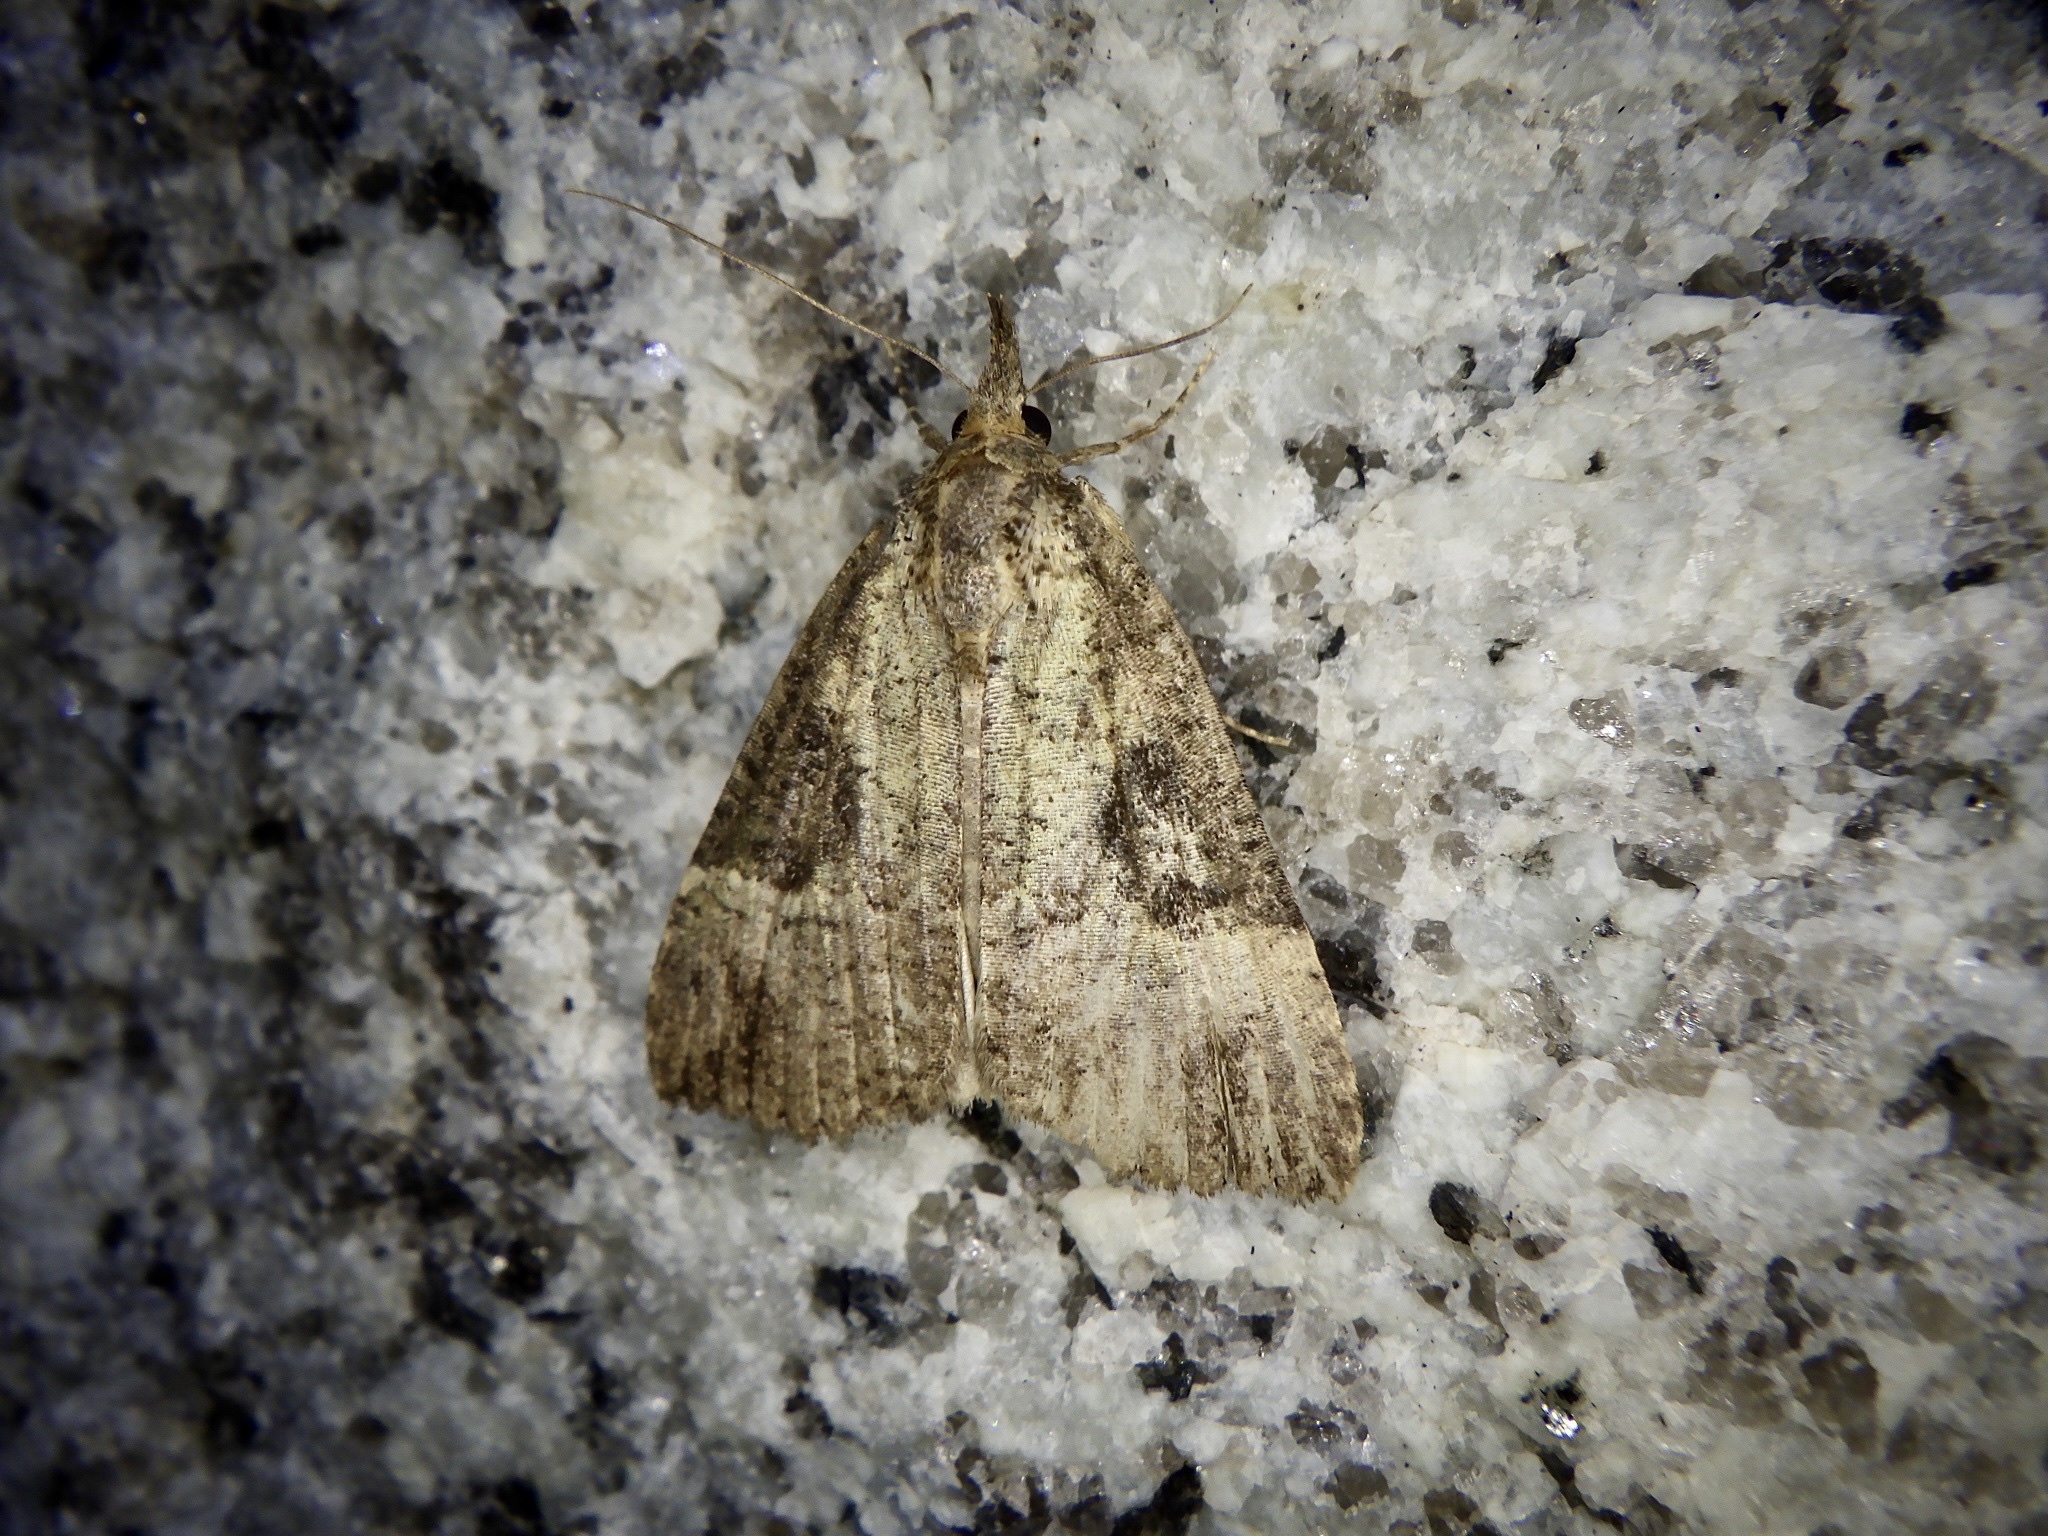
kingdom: Animalia
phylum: Arthropoda
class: Insecta
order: Lepidoptera
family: Erebidae
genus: Hypena
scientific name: Hypena tristalis
